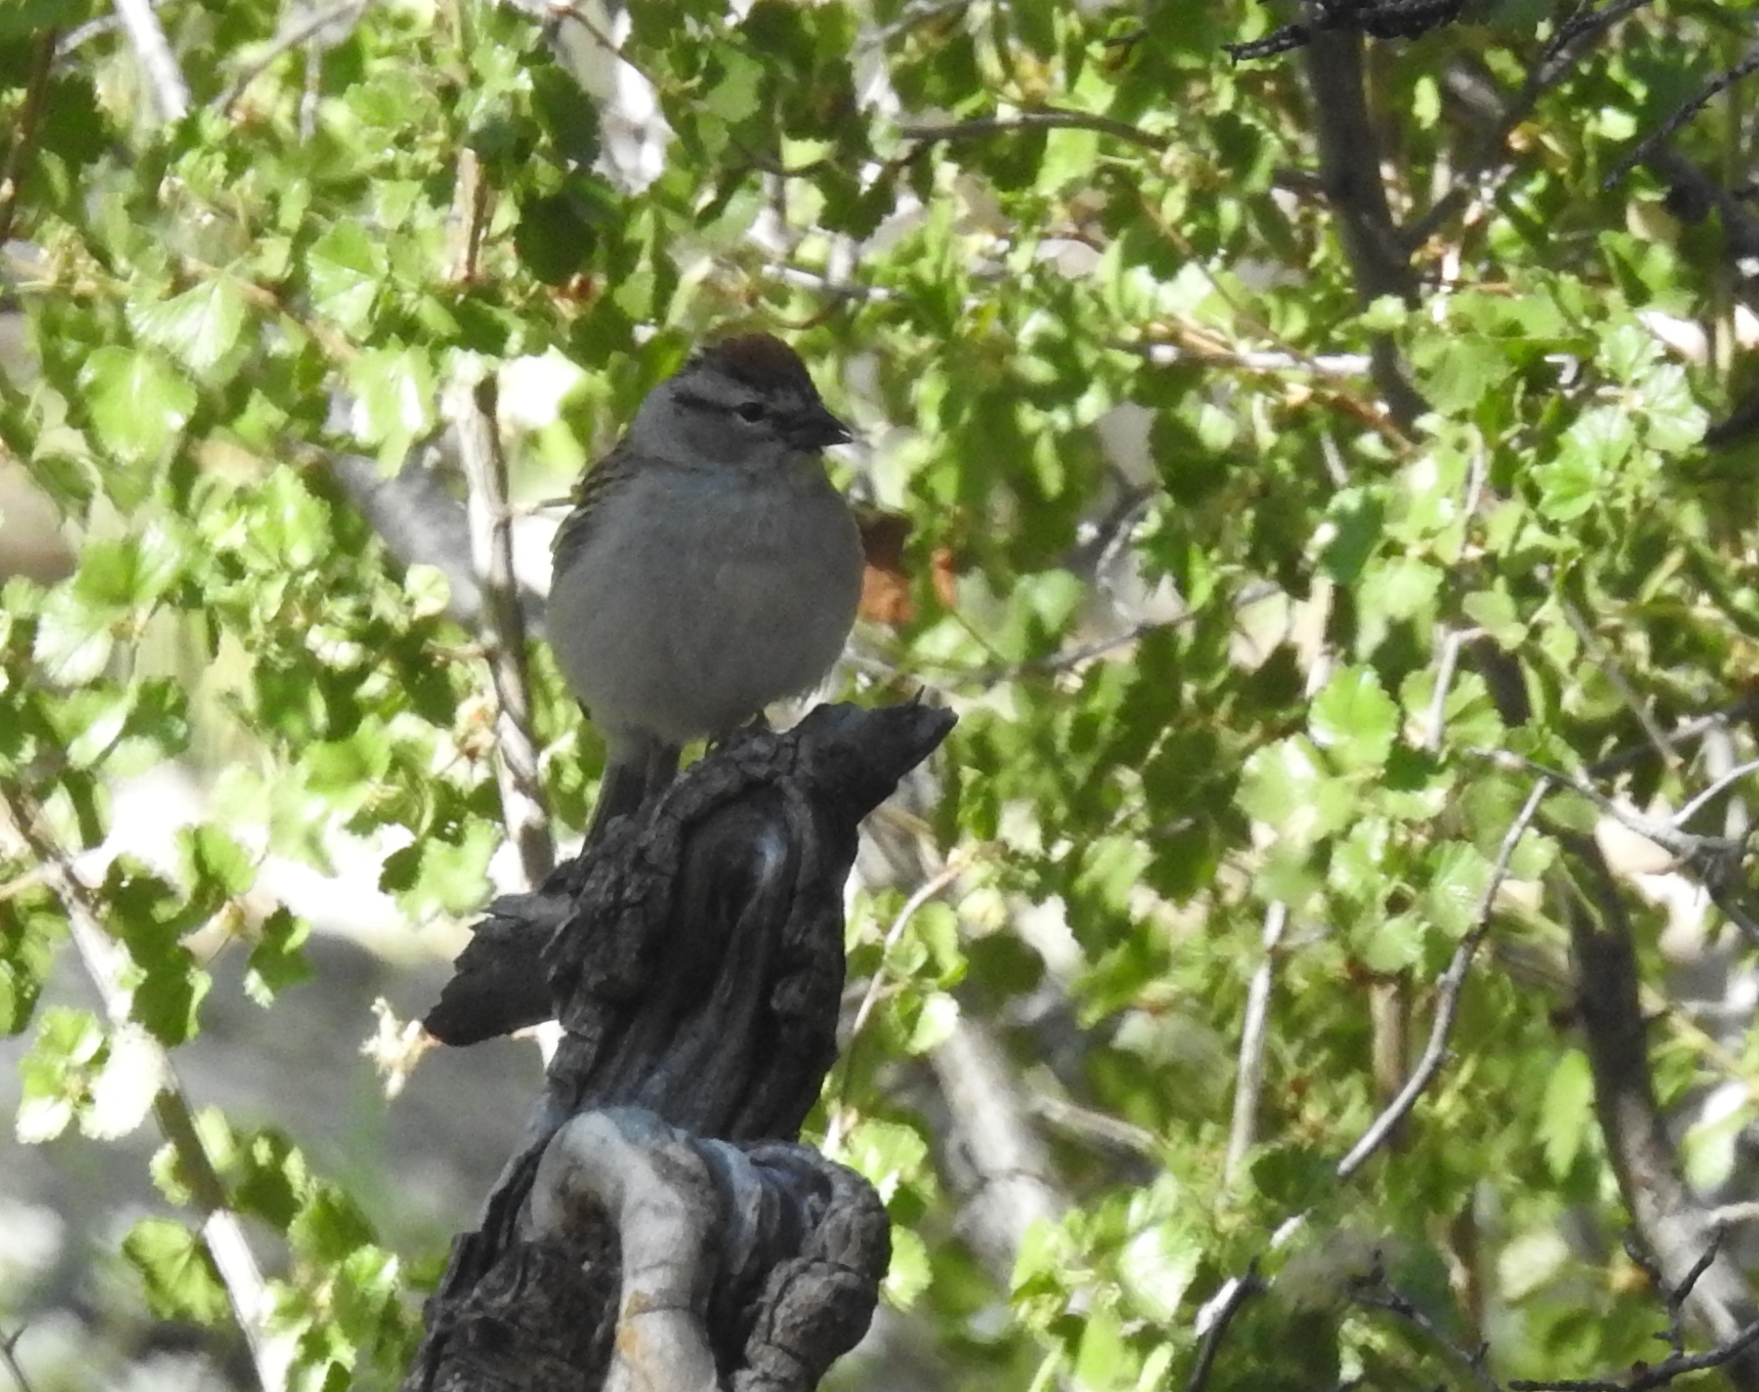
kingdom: Animalia
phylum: Chordata
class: Aves
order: Passeriformes
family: Passerellidae
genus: Spizella
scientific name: Spizella passerina
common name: Chipping sparrow
